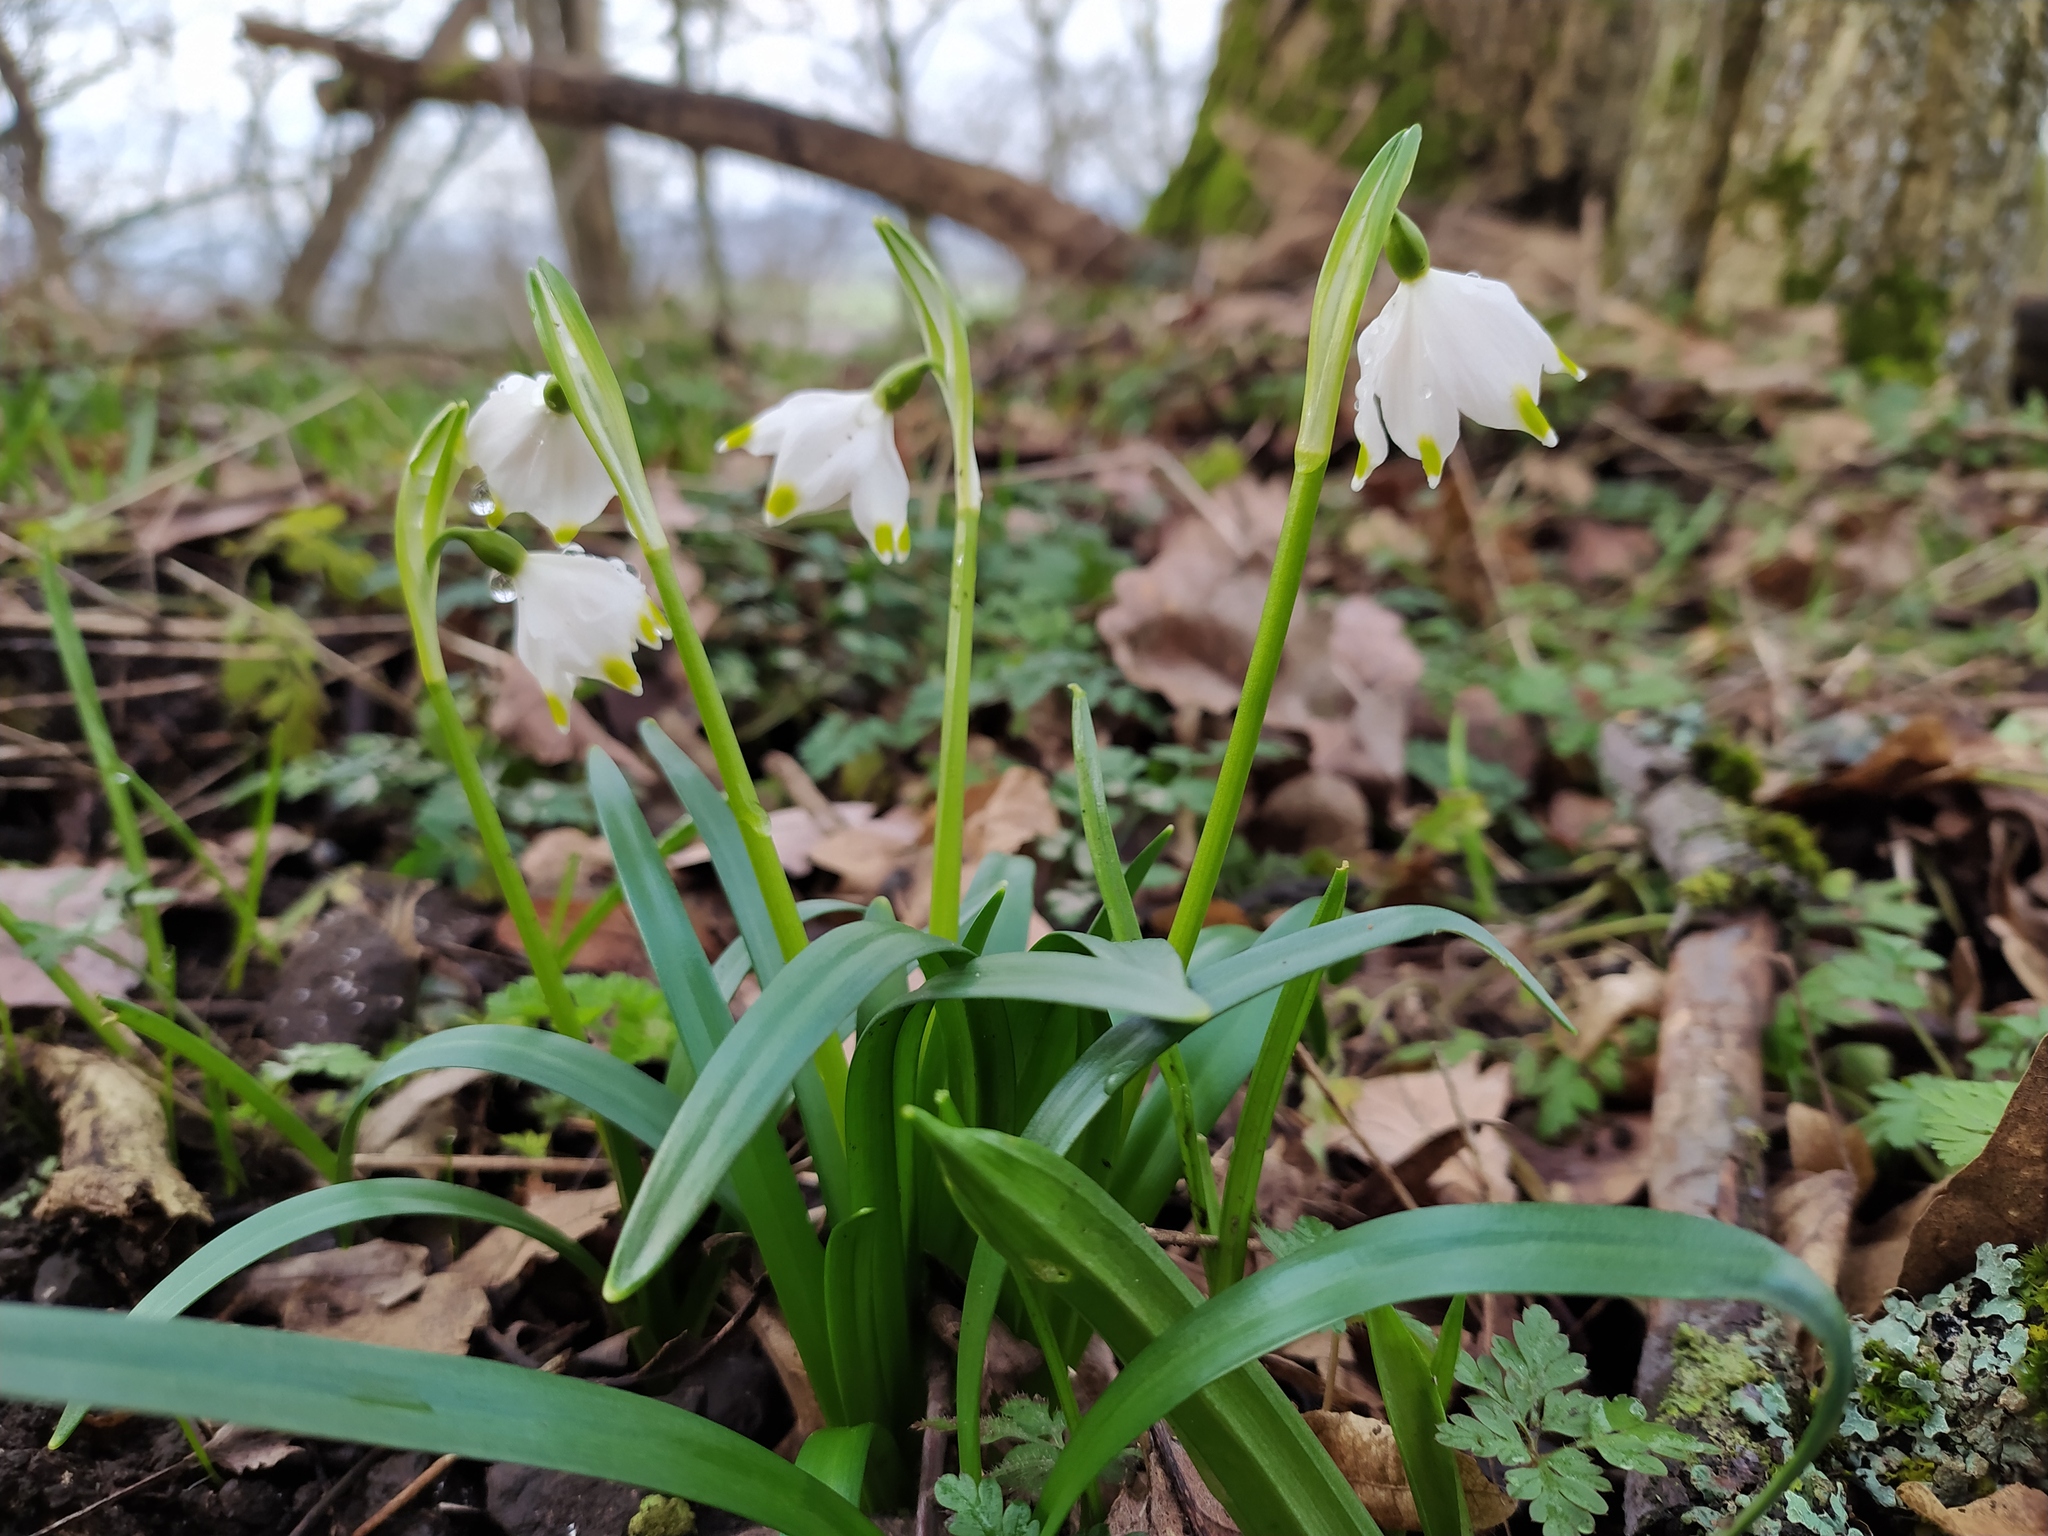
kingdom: Plantae
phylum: Tracheophyta
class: Liliopsida
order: Asparagales
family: Amaryllidaceae
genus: Leucojum
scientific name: Leucojum vernum
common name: Spring snowflake
